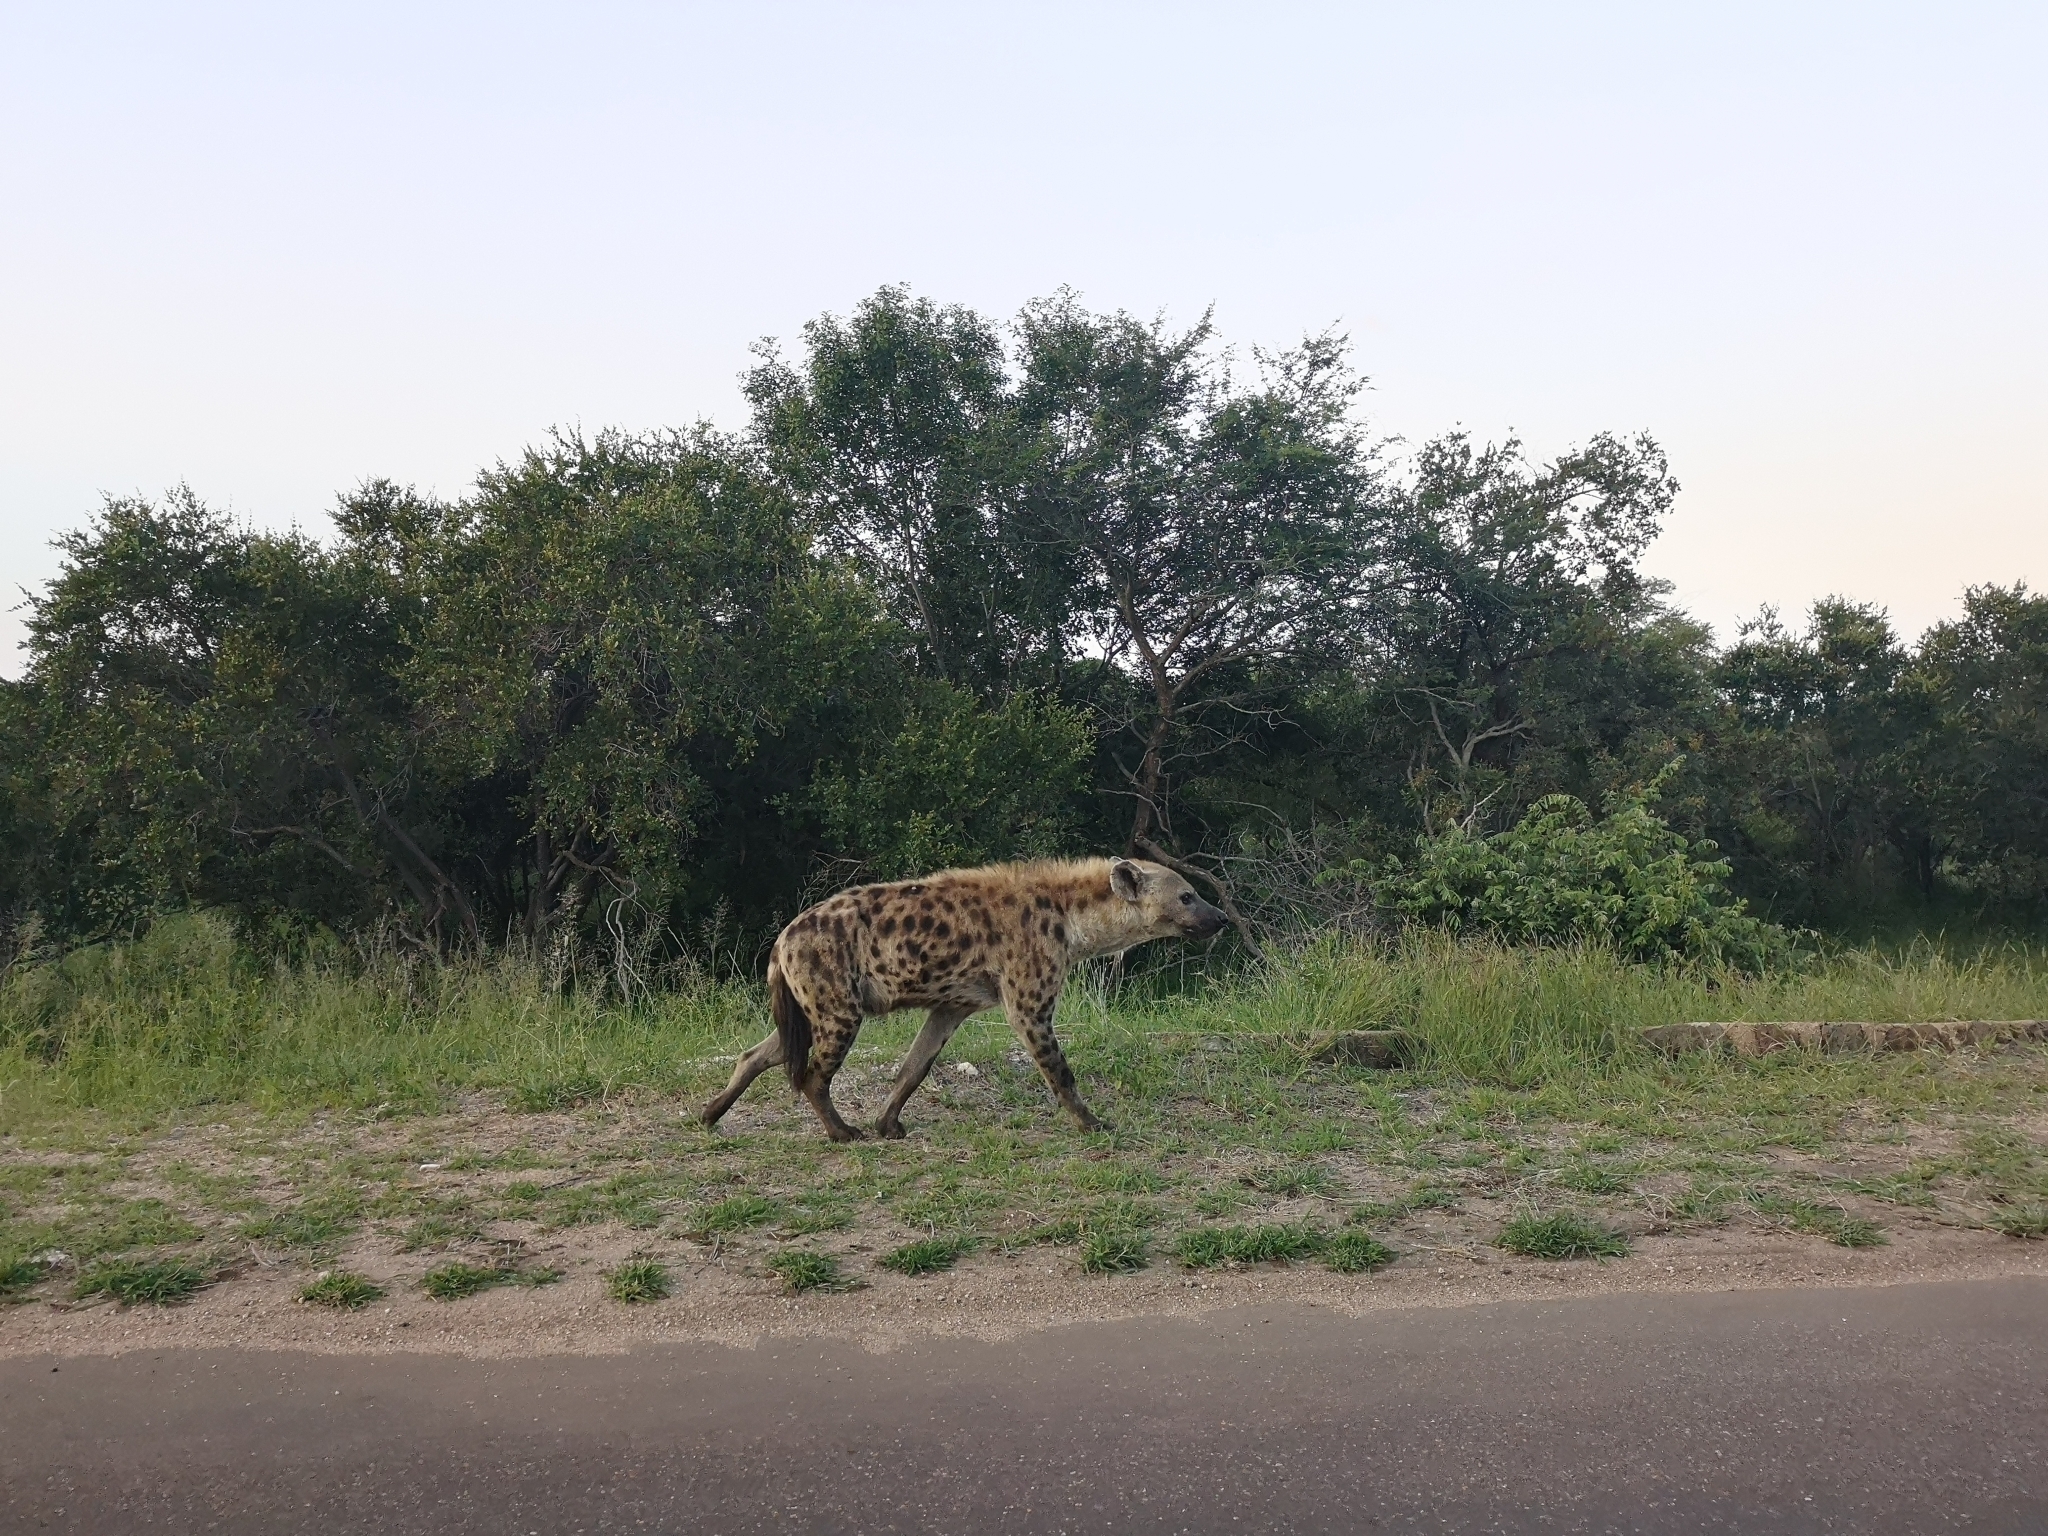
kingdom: Animalia
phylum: Chordata
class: Mammalia
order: Carnivora
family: Hyaenidae
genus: Crocuta
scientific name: Crocuta crocuta
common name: Spotted hyaena
